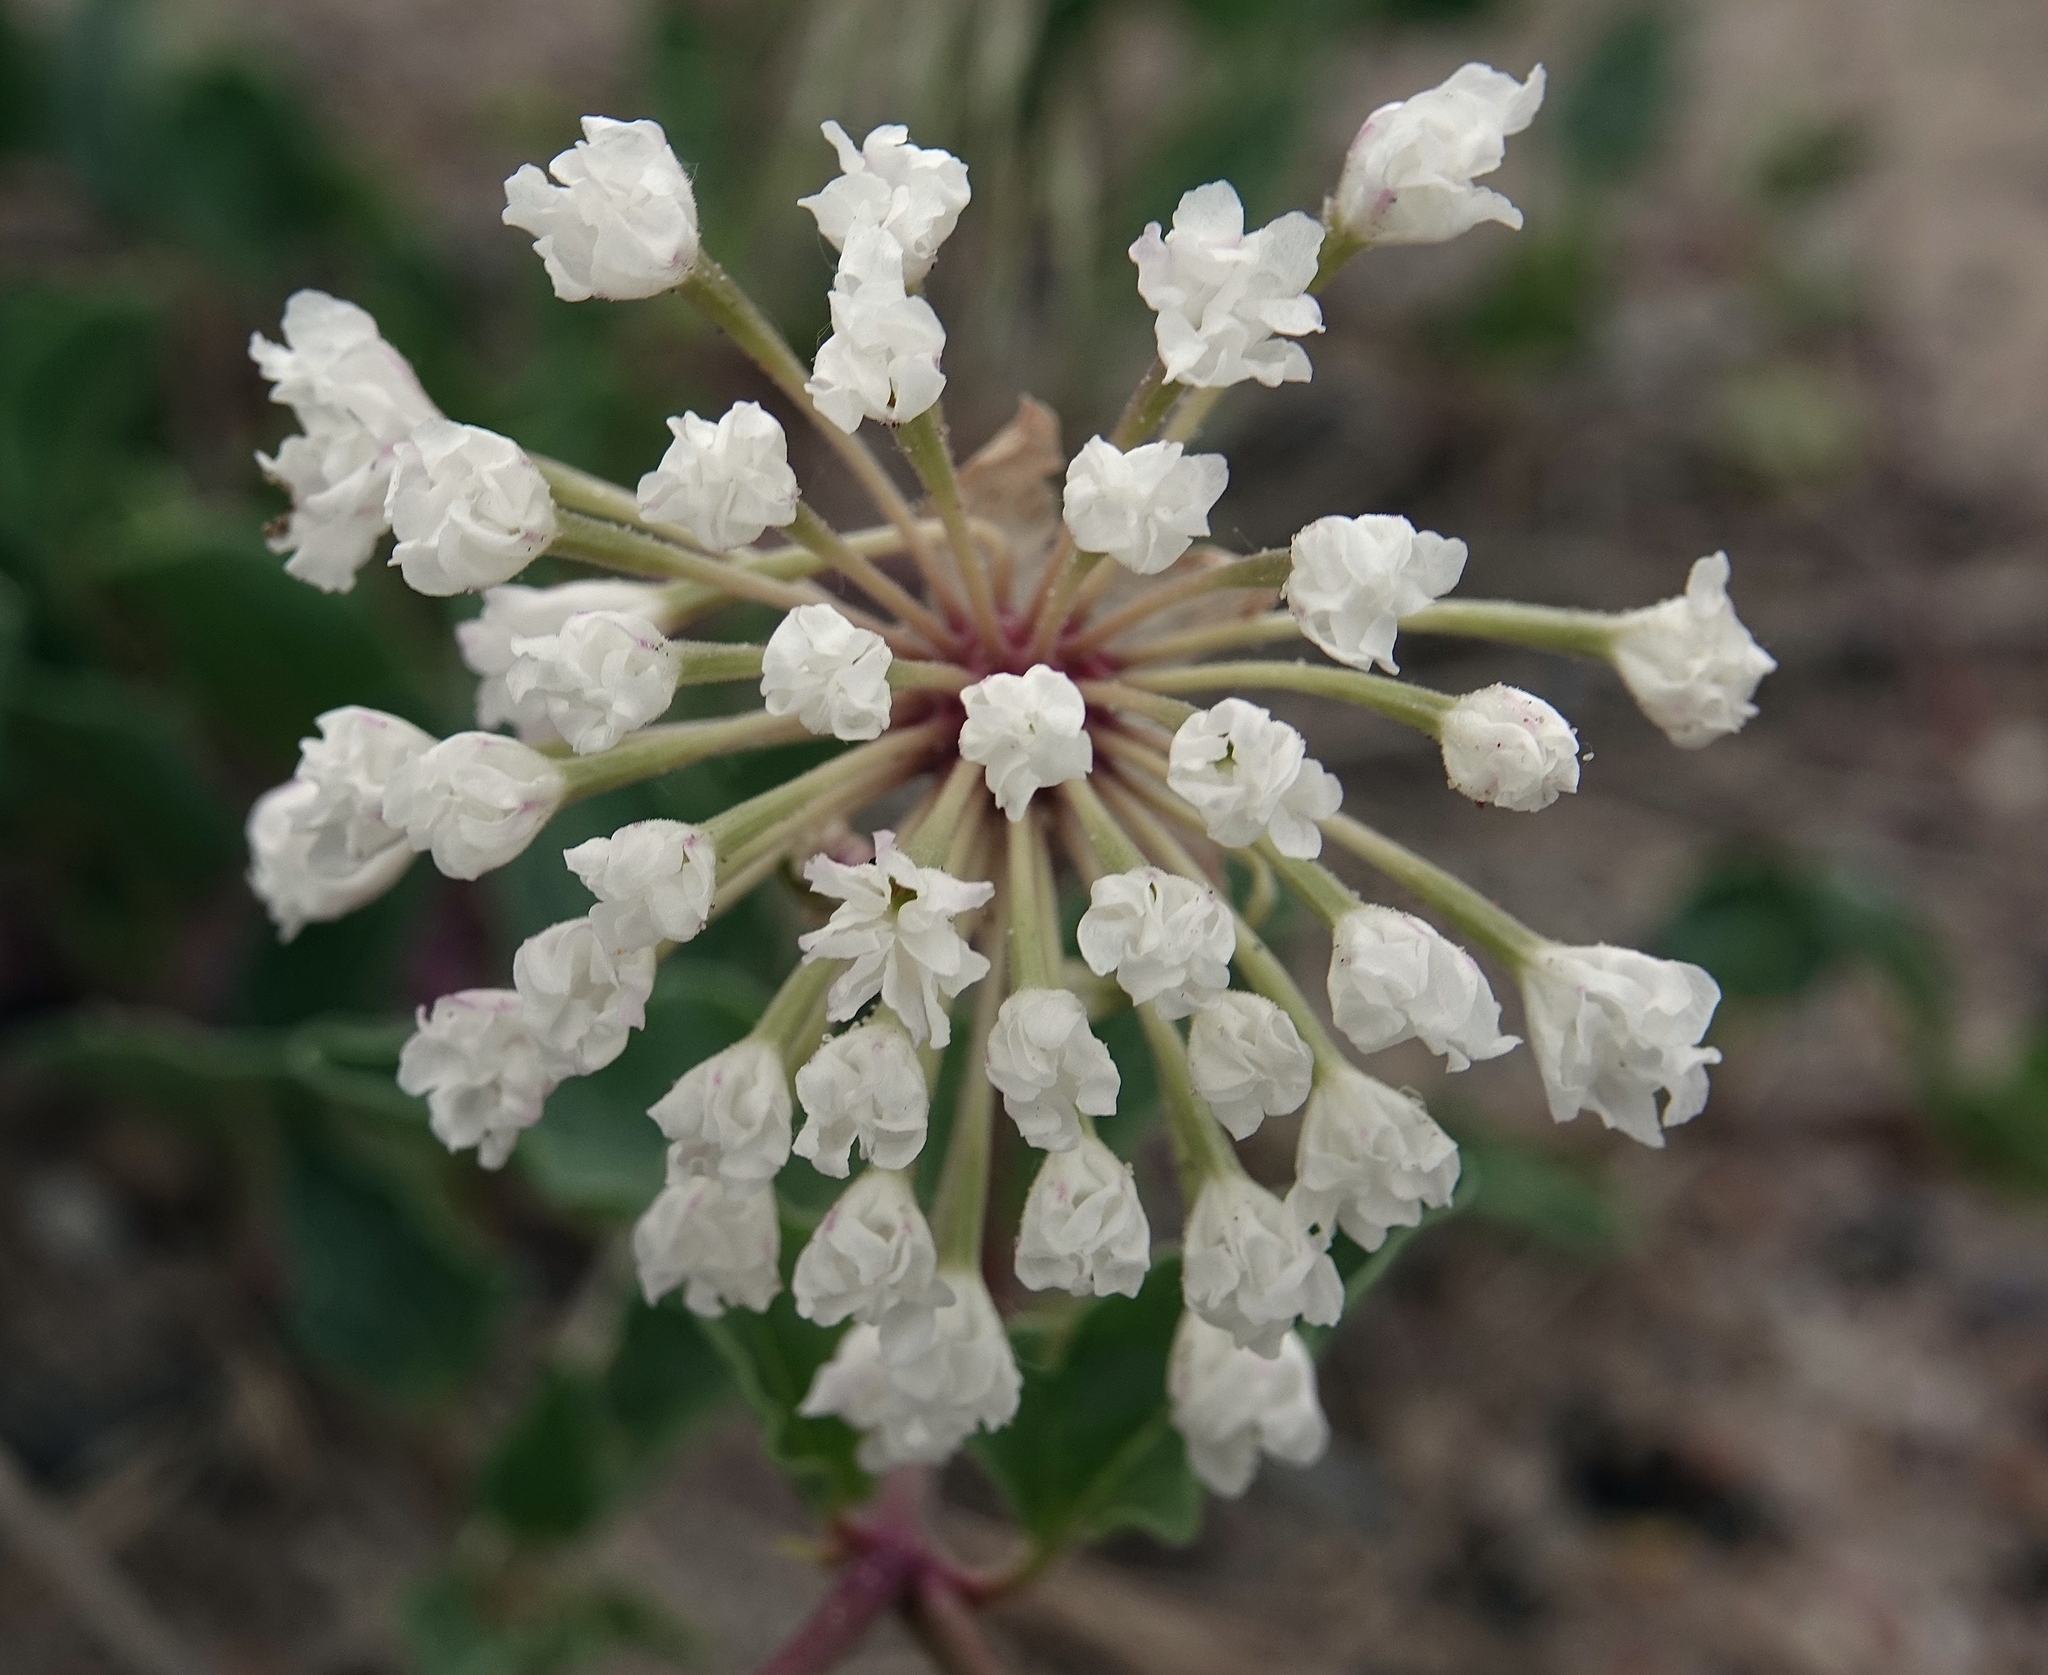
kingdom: Plantae
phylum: Tracheophyta
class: Magnoliopsida
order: Caryophyllales
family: Nyctaginaceae
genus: Abronia
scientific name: Abronia fragrans
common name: Fragrant sand-verbena
